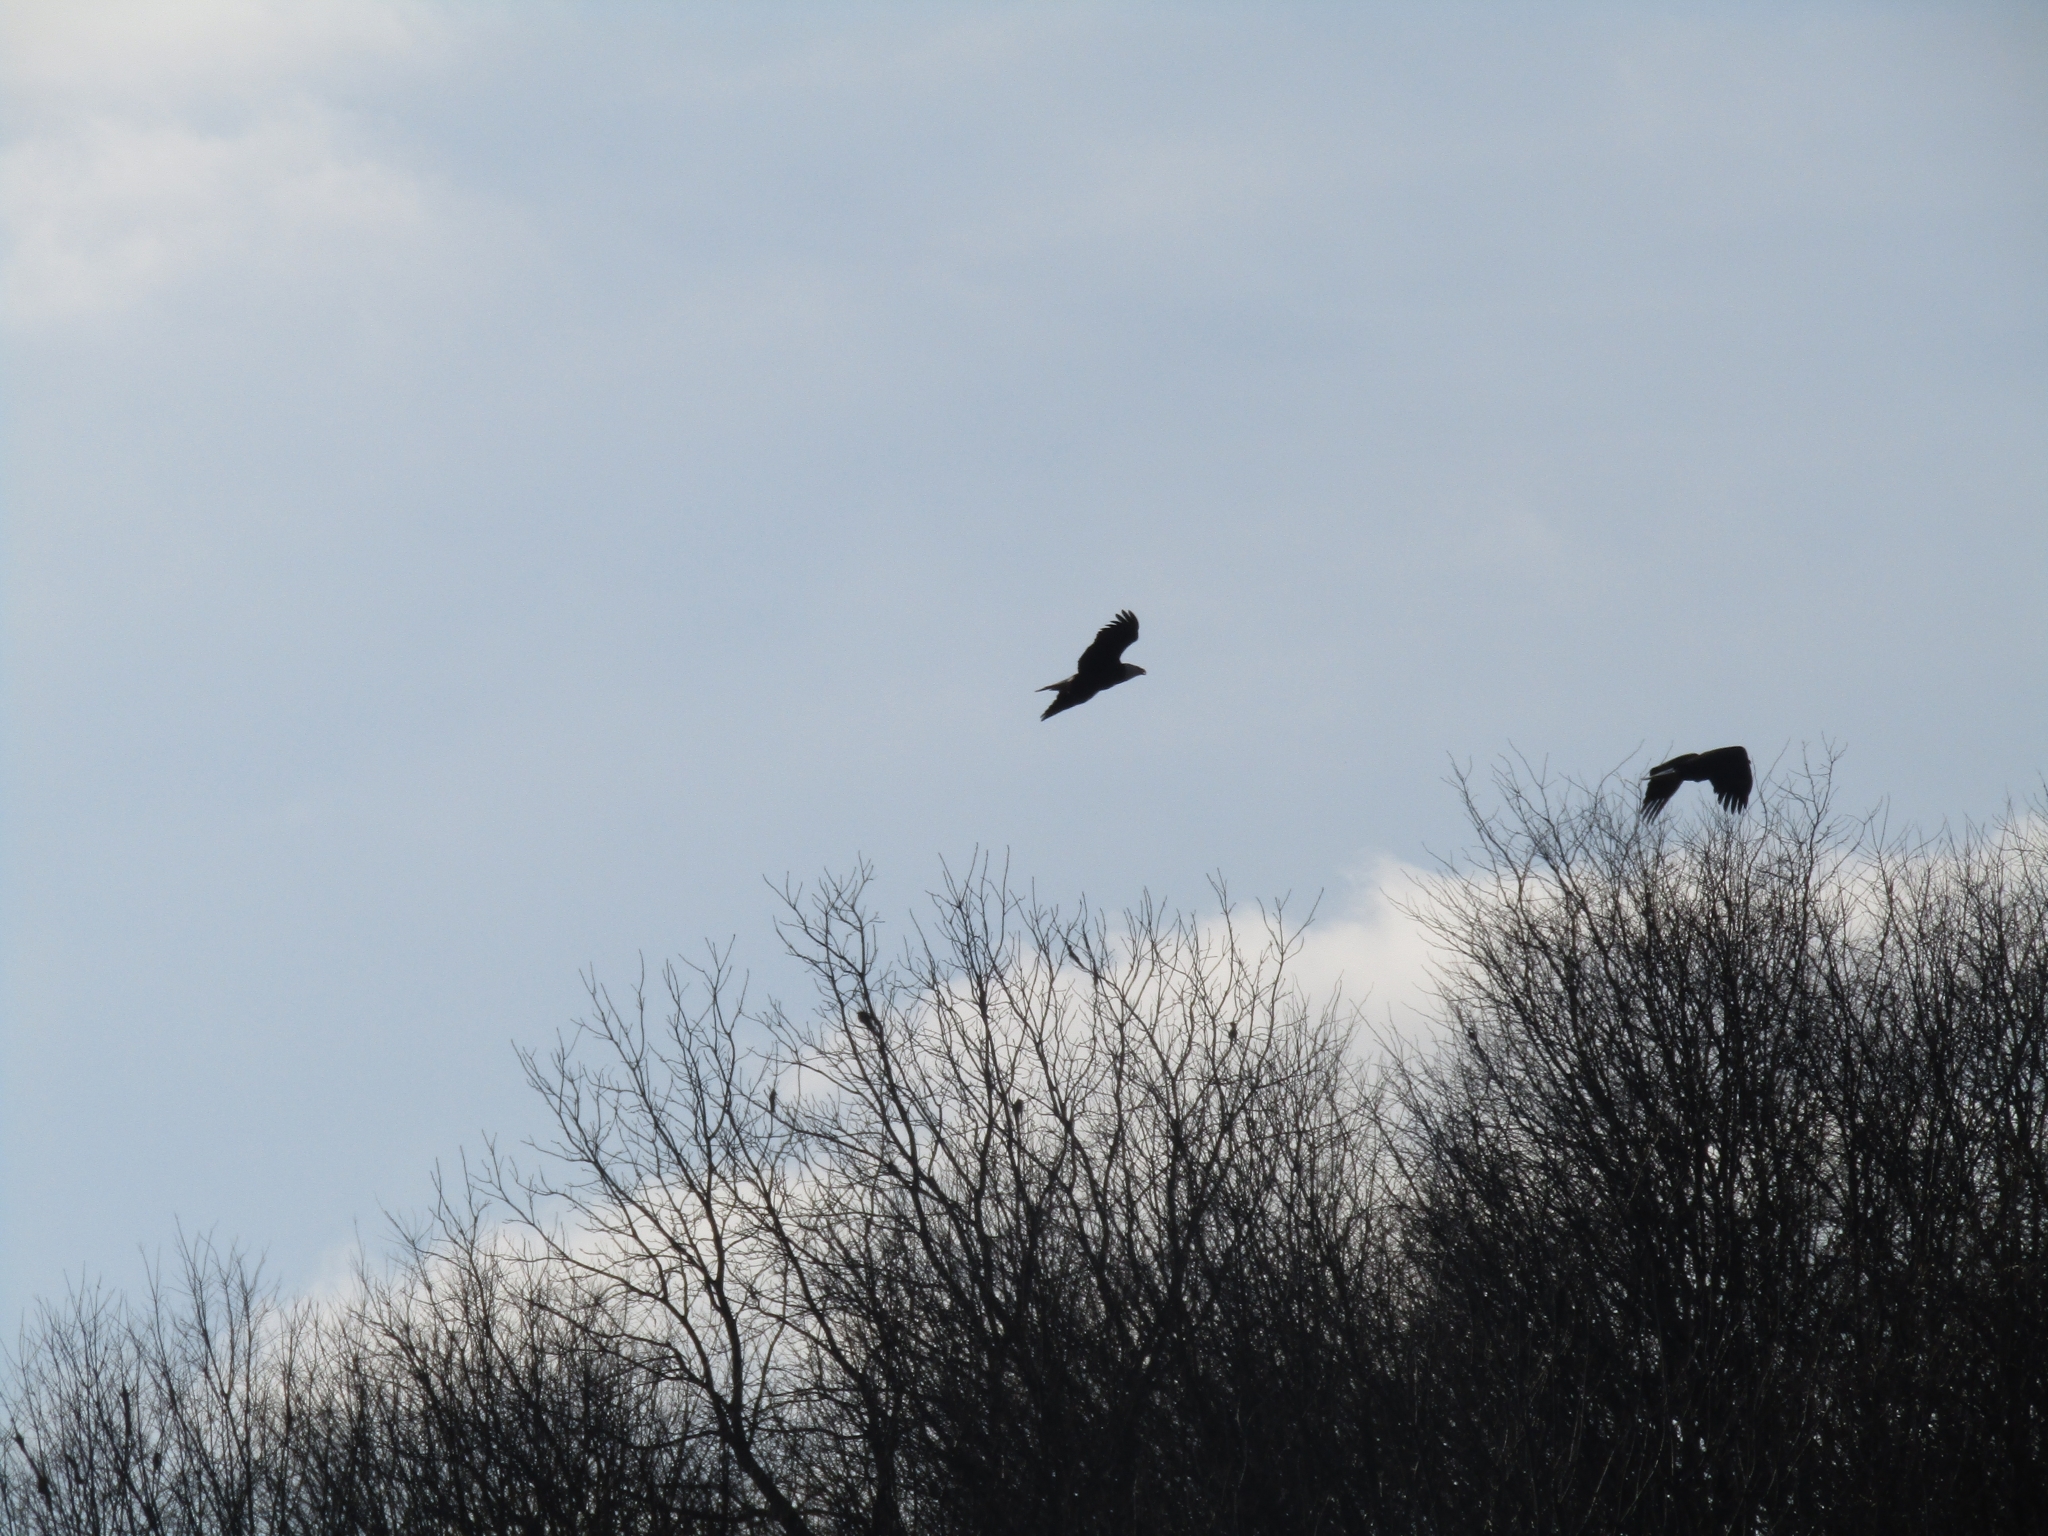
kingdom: Animalia
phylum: Chordata
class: Aves
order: Accipitriformes
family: Accipitridae
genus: Haliaeetus
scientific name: Haliaeetus leucocephalus
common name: Bald eagle
